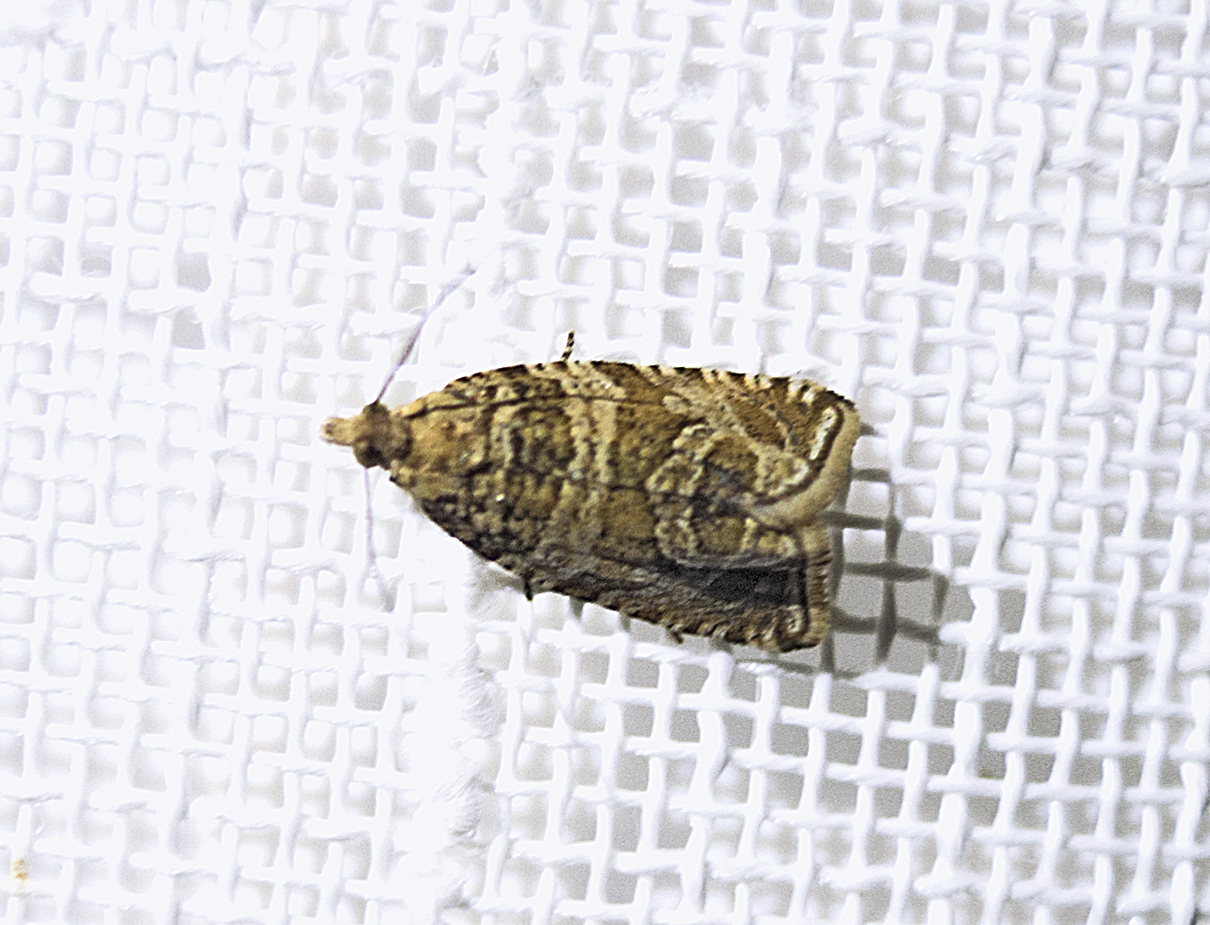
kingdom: Animalia
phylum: Arthropoda
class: Insecta
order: Lepidoptera
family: Tortricidae
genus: Syricoris
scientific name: Syricoris rivulana
